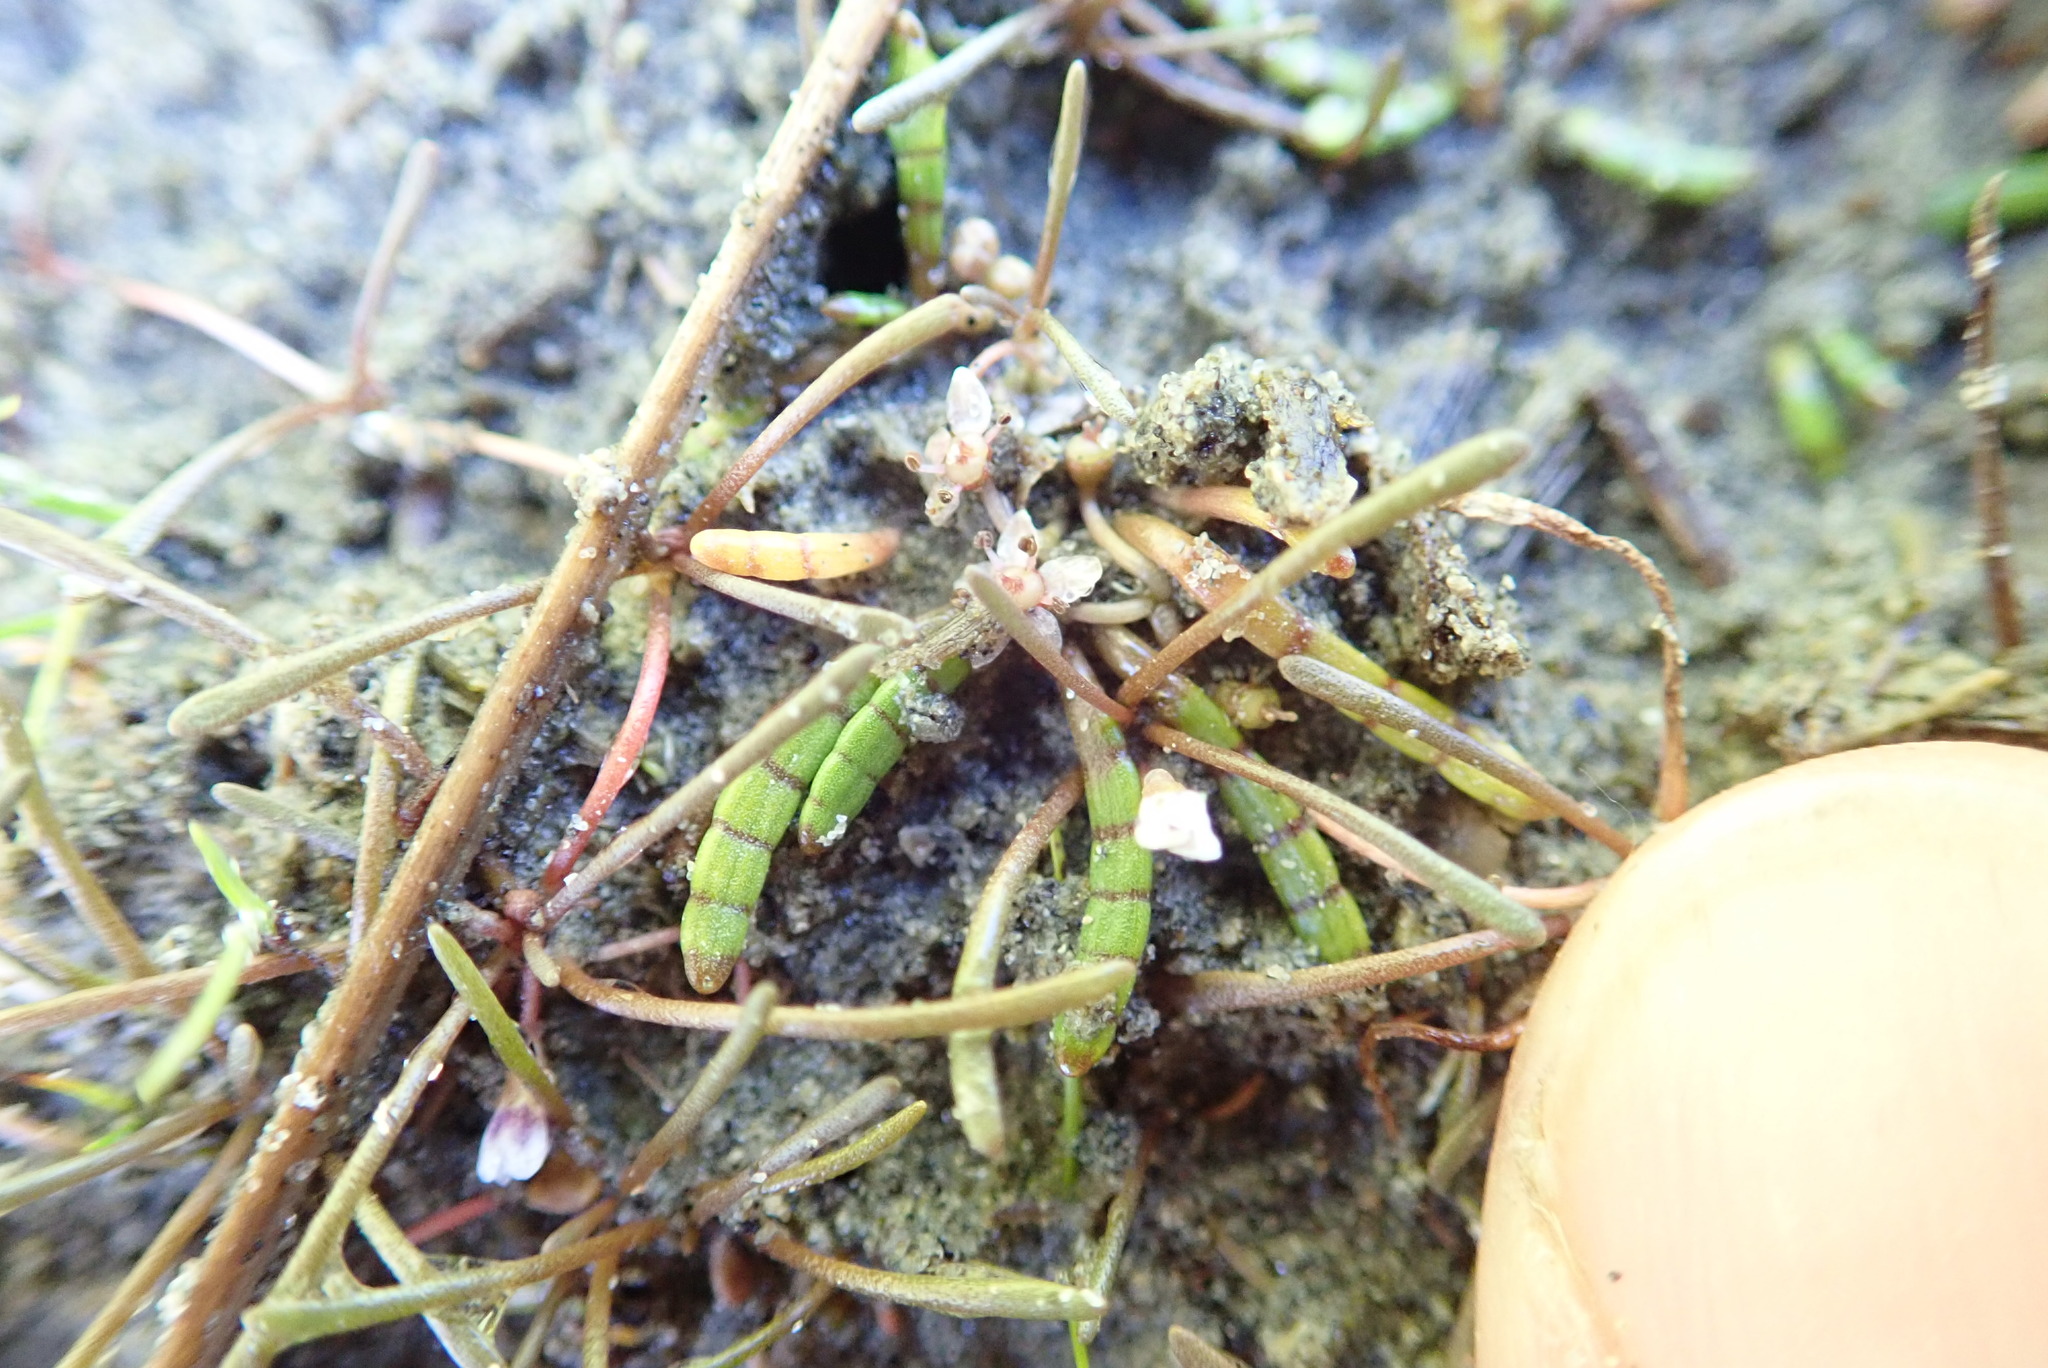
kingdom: Plantae
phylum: Tracheophyta
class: Magnoliopsida
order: Apiales
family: Apiaceae
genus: Lilaeopsis
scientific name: Lilaeopsis novae-zelandiae
